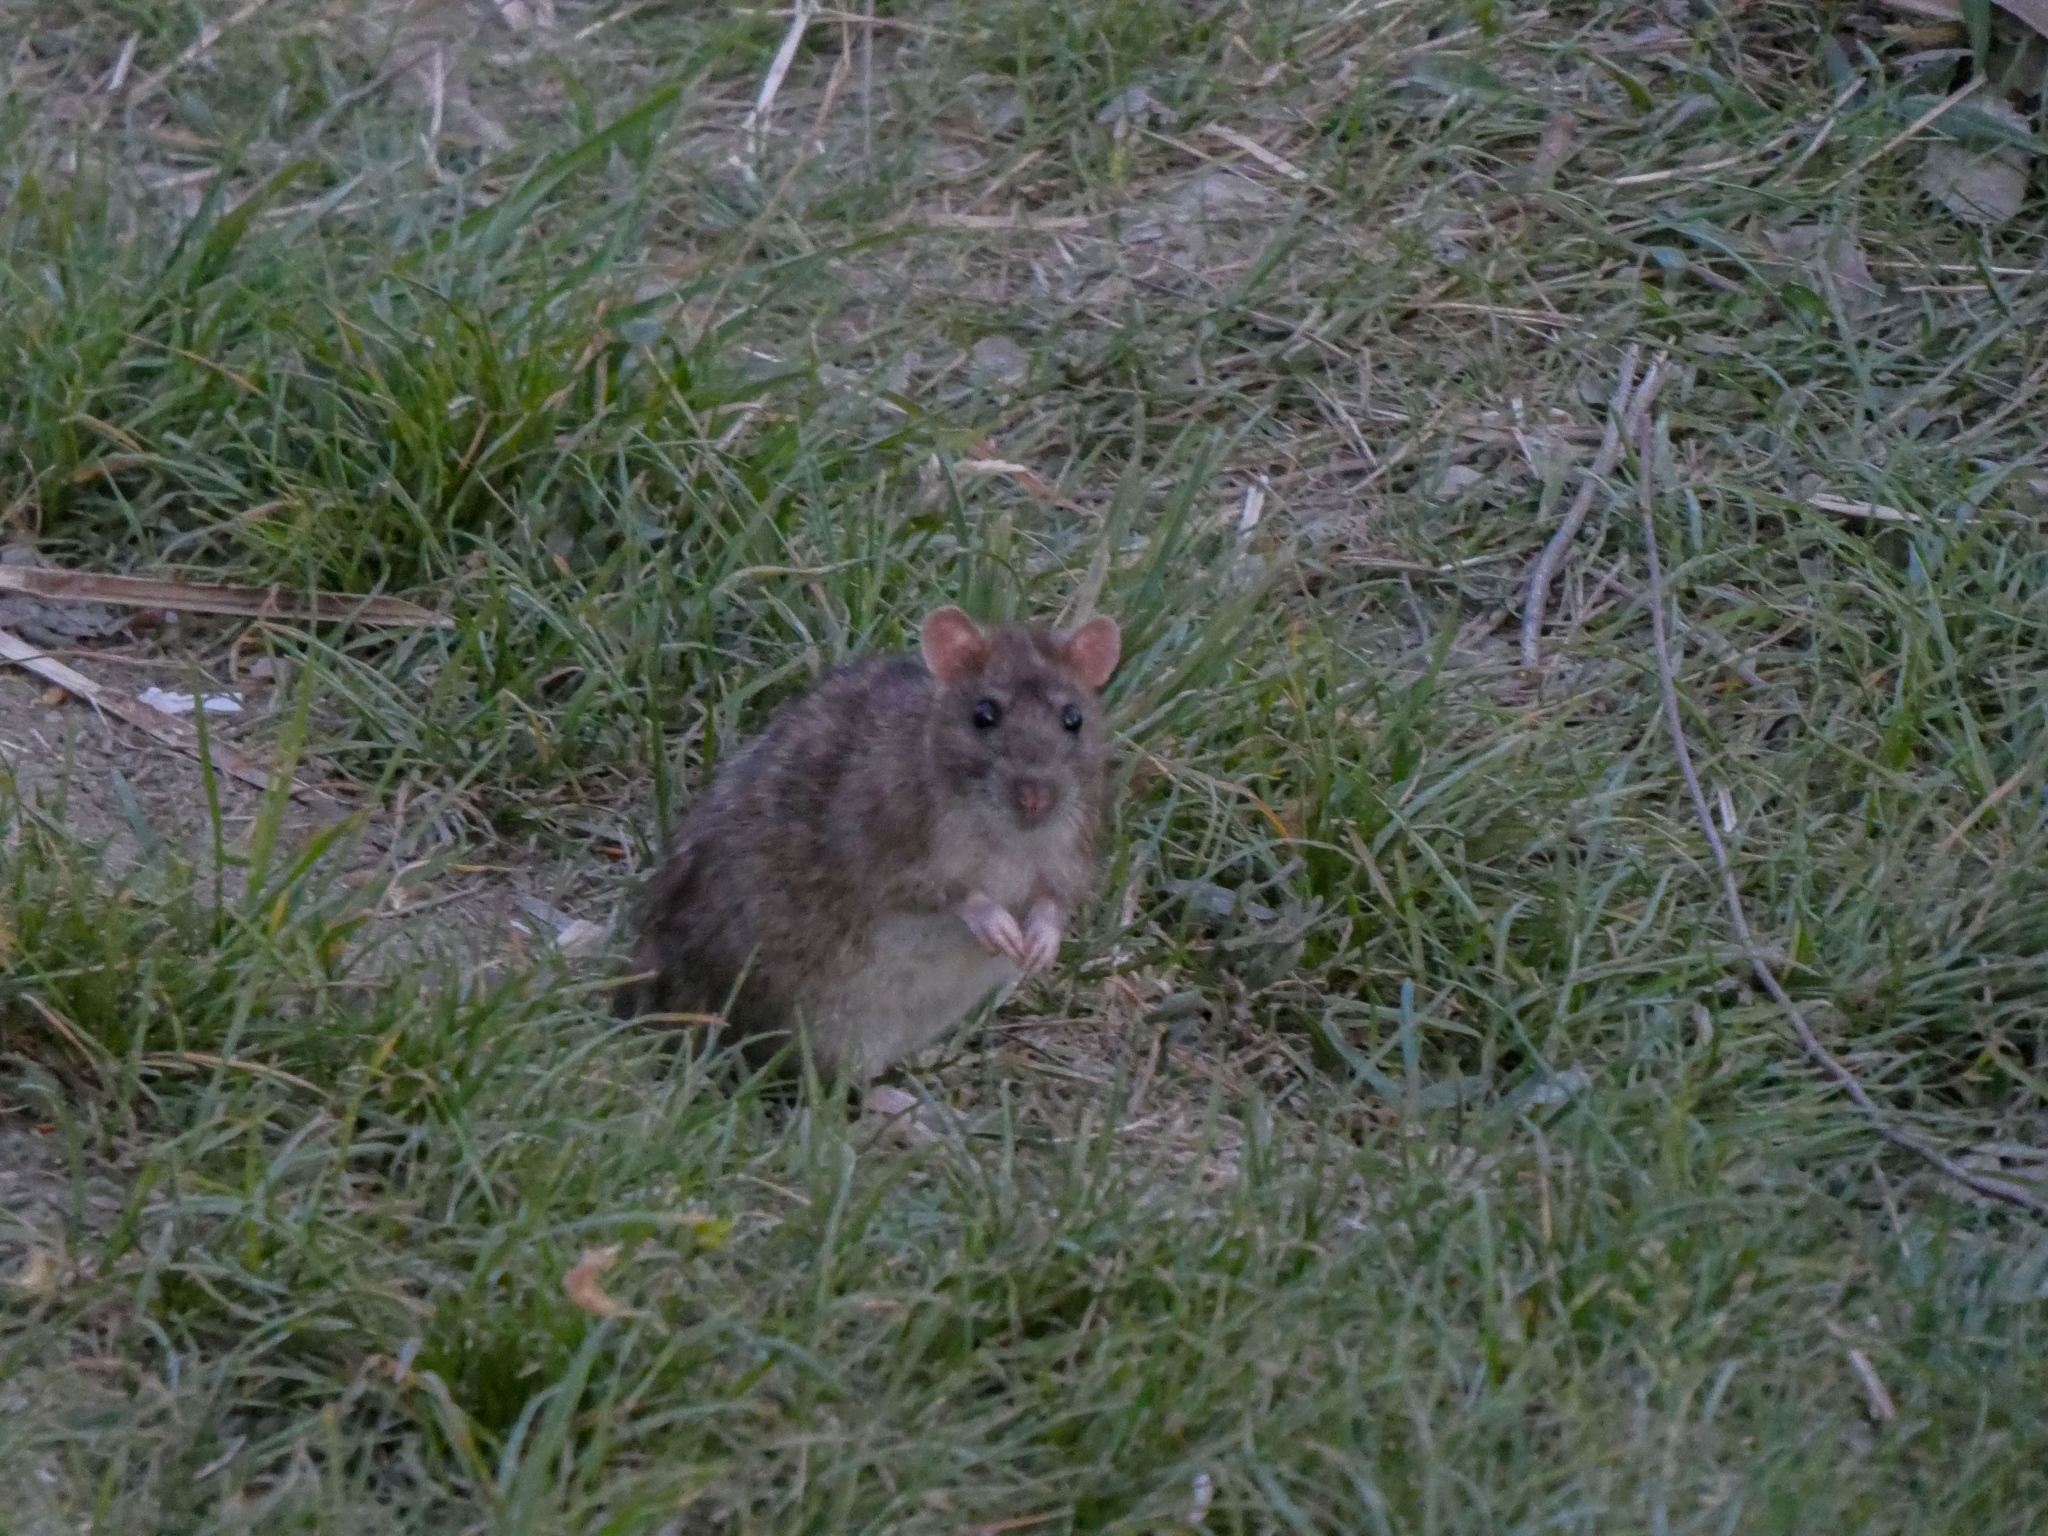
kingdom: Animalia
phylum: Chordata
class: Mammalia
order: Rodentia
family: Muridae
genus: Rattus
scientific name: Rattus norvegicus
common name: Brown rat
